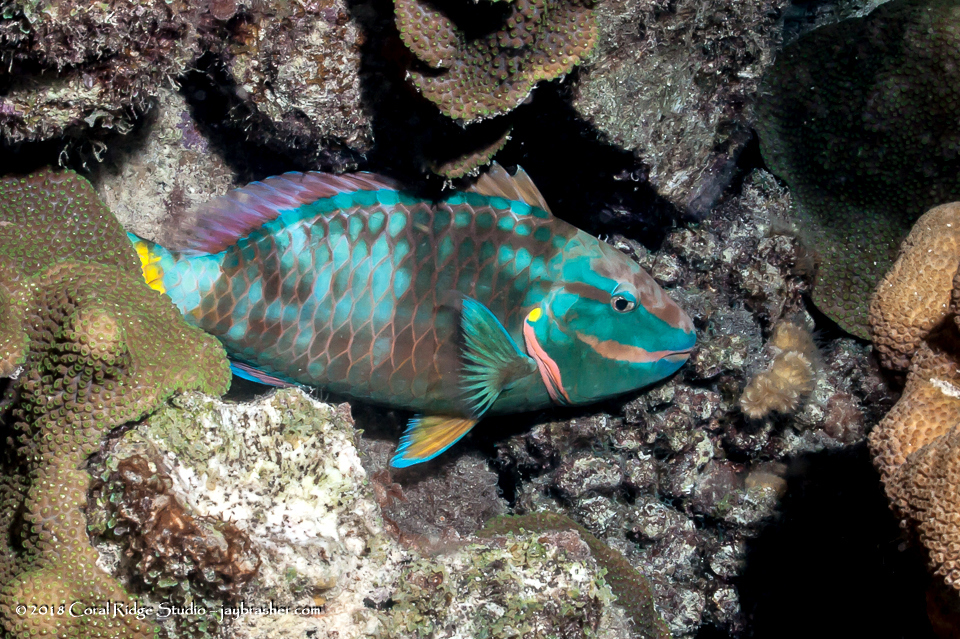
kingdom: Animalia
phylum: Chordata
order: Perciformes
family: Scaridae
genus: Sparisoma
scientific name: Sparisoma viride
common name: Stoplight parrotfish
